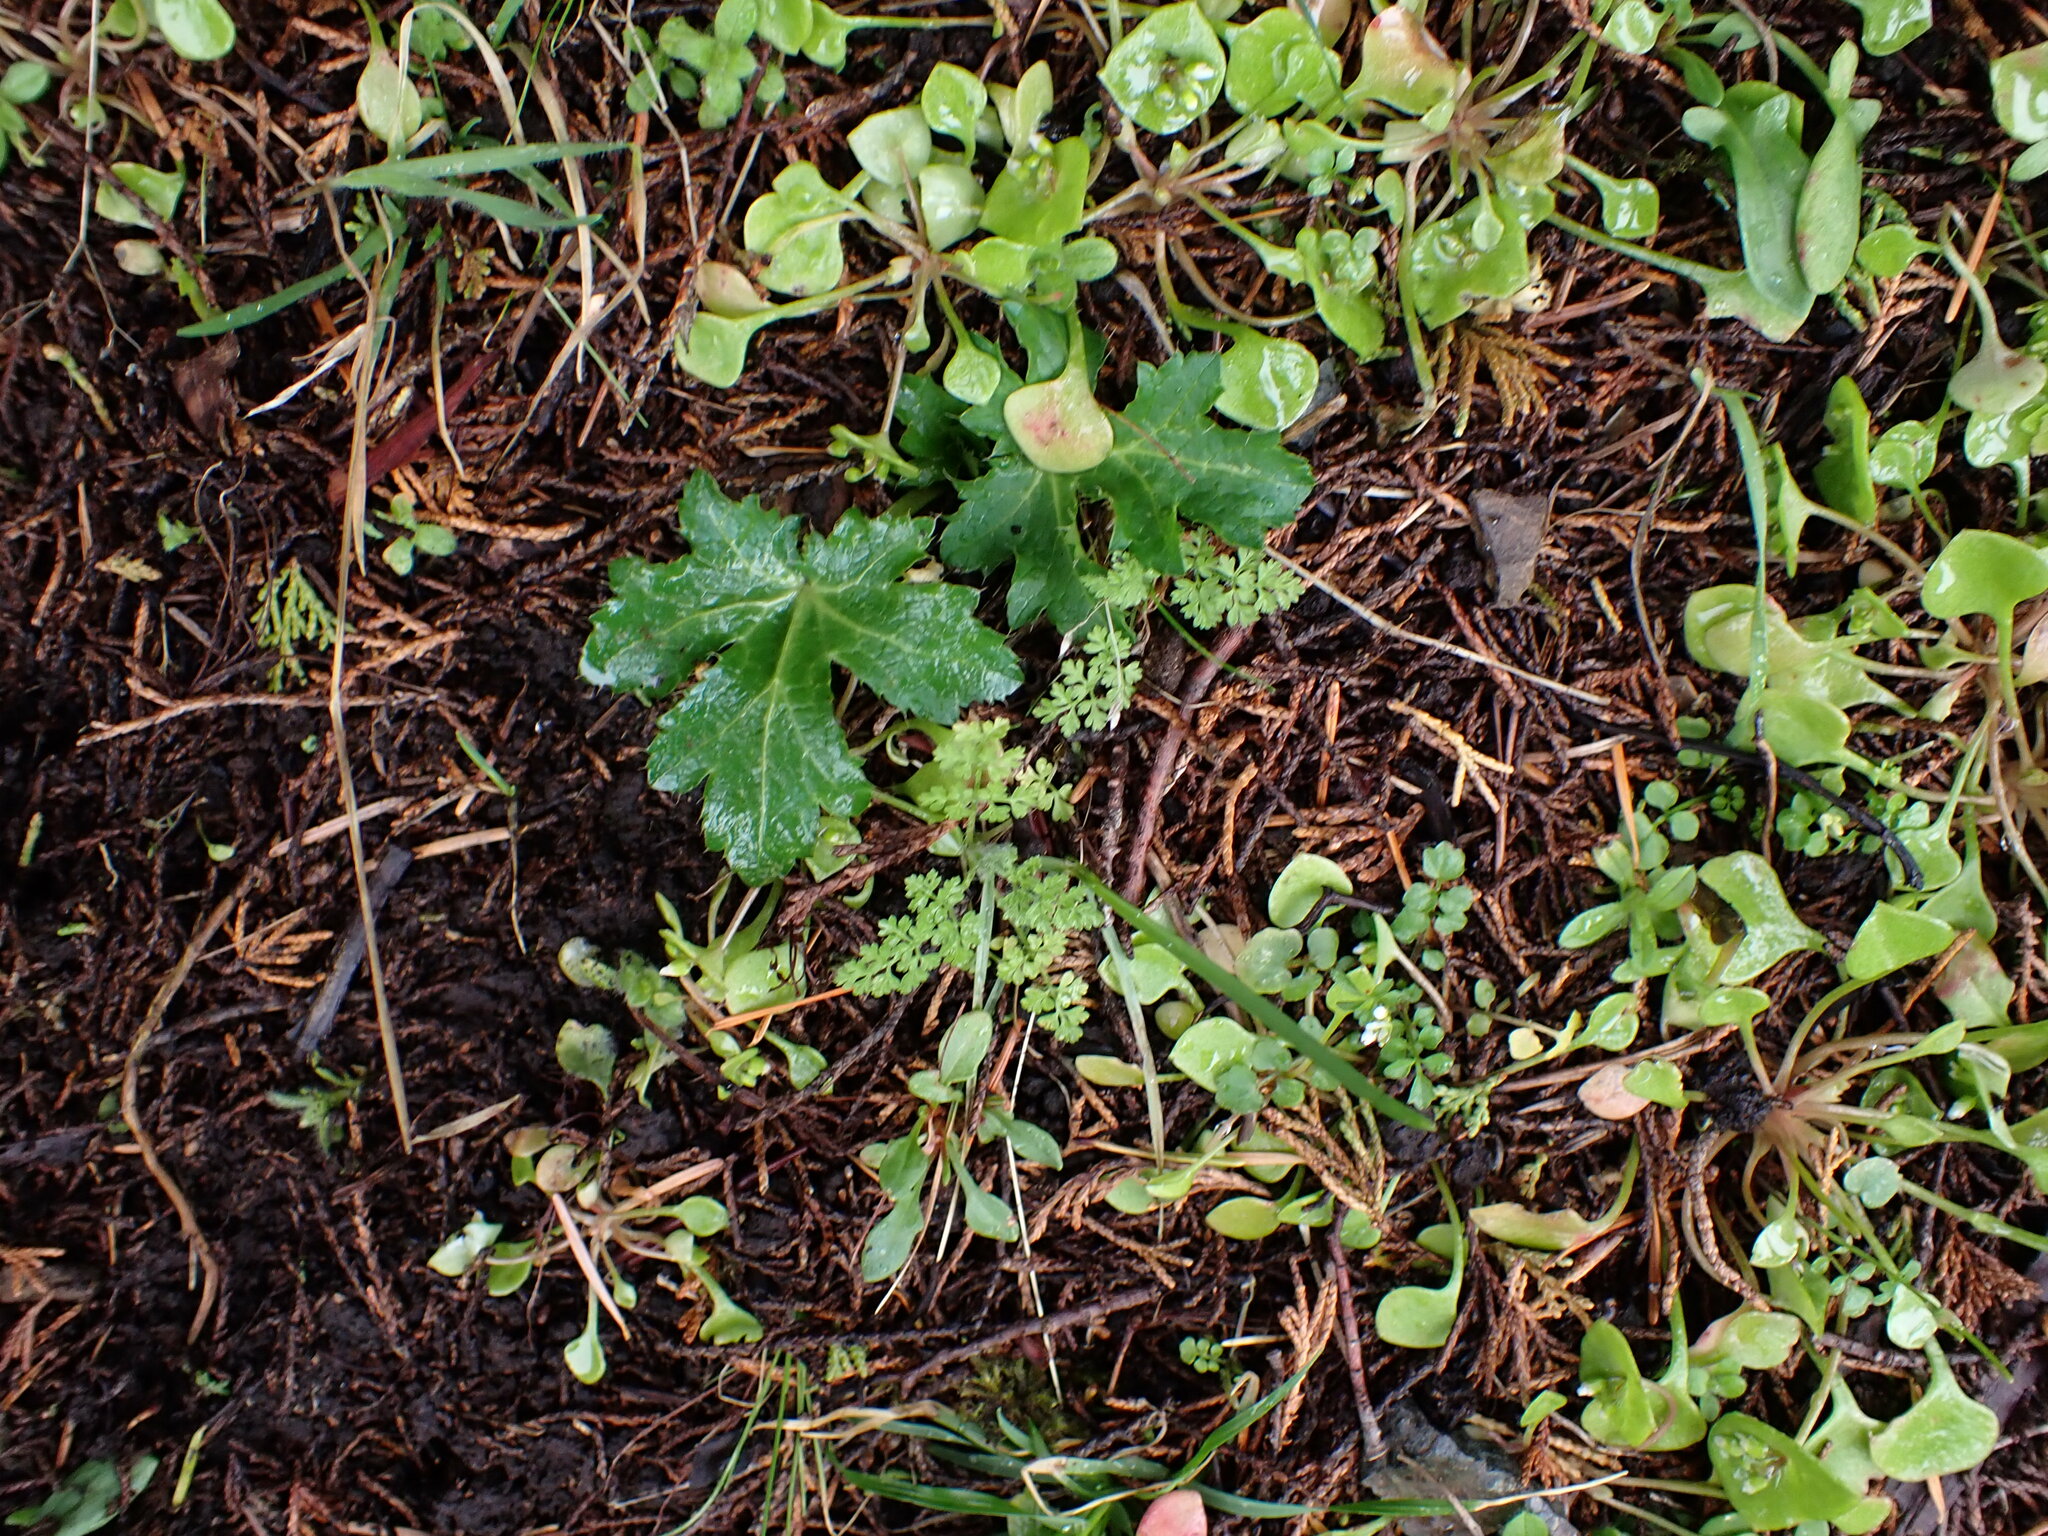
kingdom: Plantae
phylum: Tracheophyta
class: Magnoliopsida
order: Apiales
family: Apiaceae
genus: Sanicula
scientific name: Sanicula crassicaulis
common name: Western snakeroot
